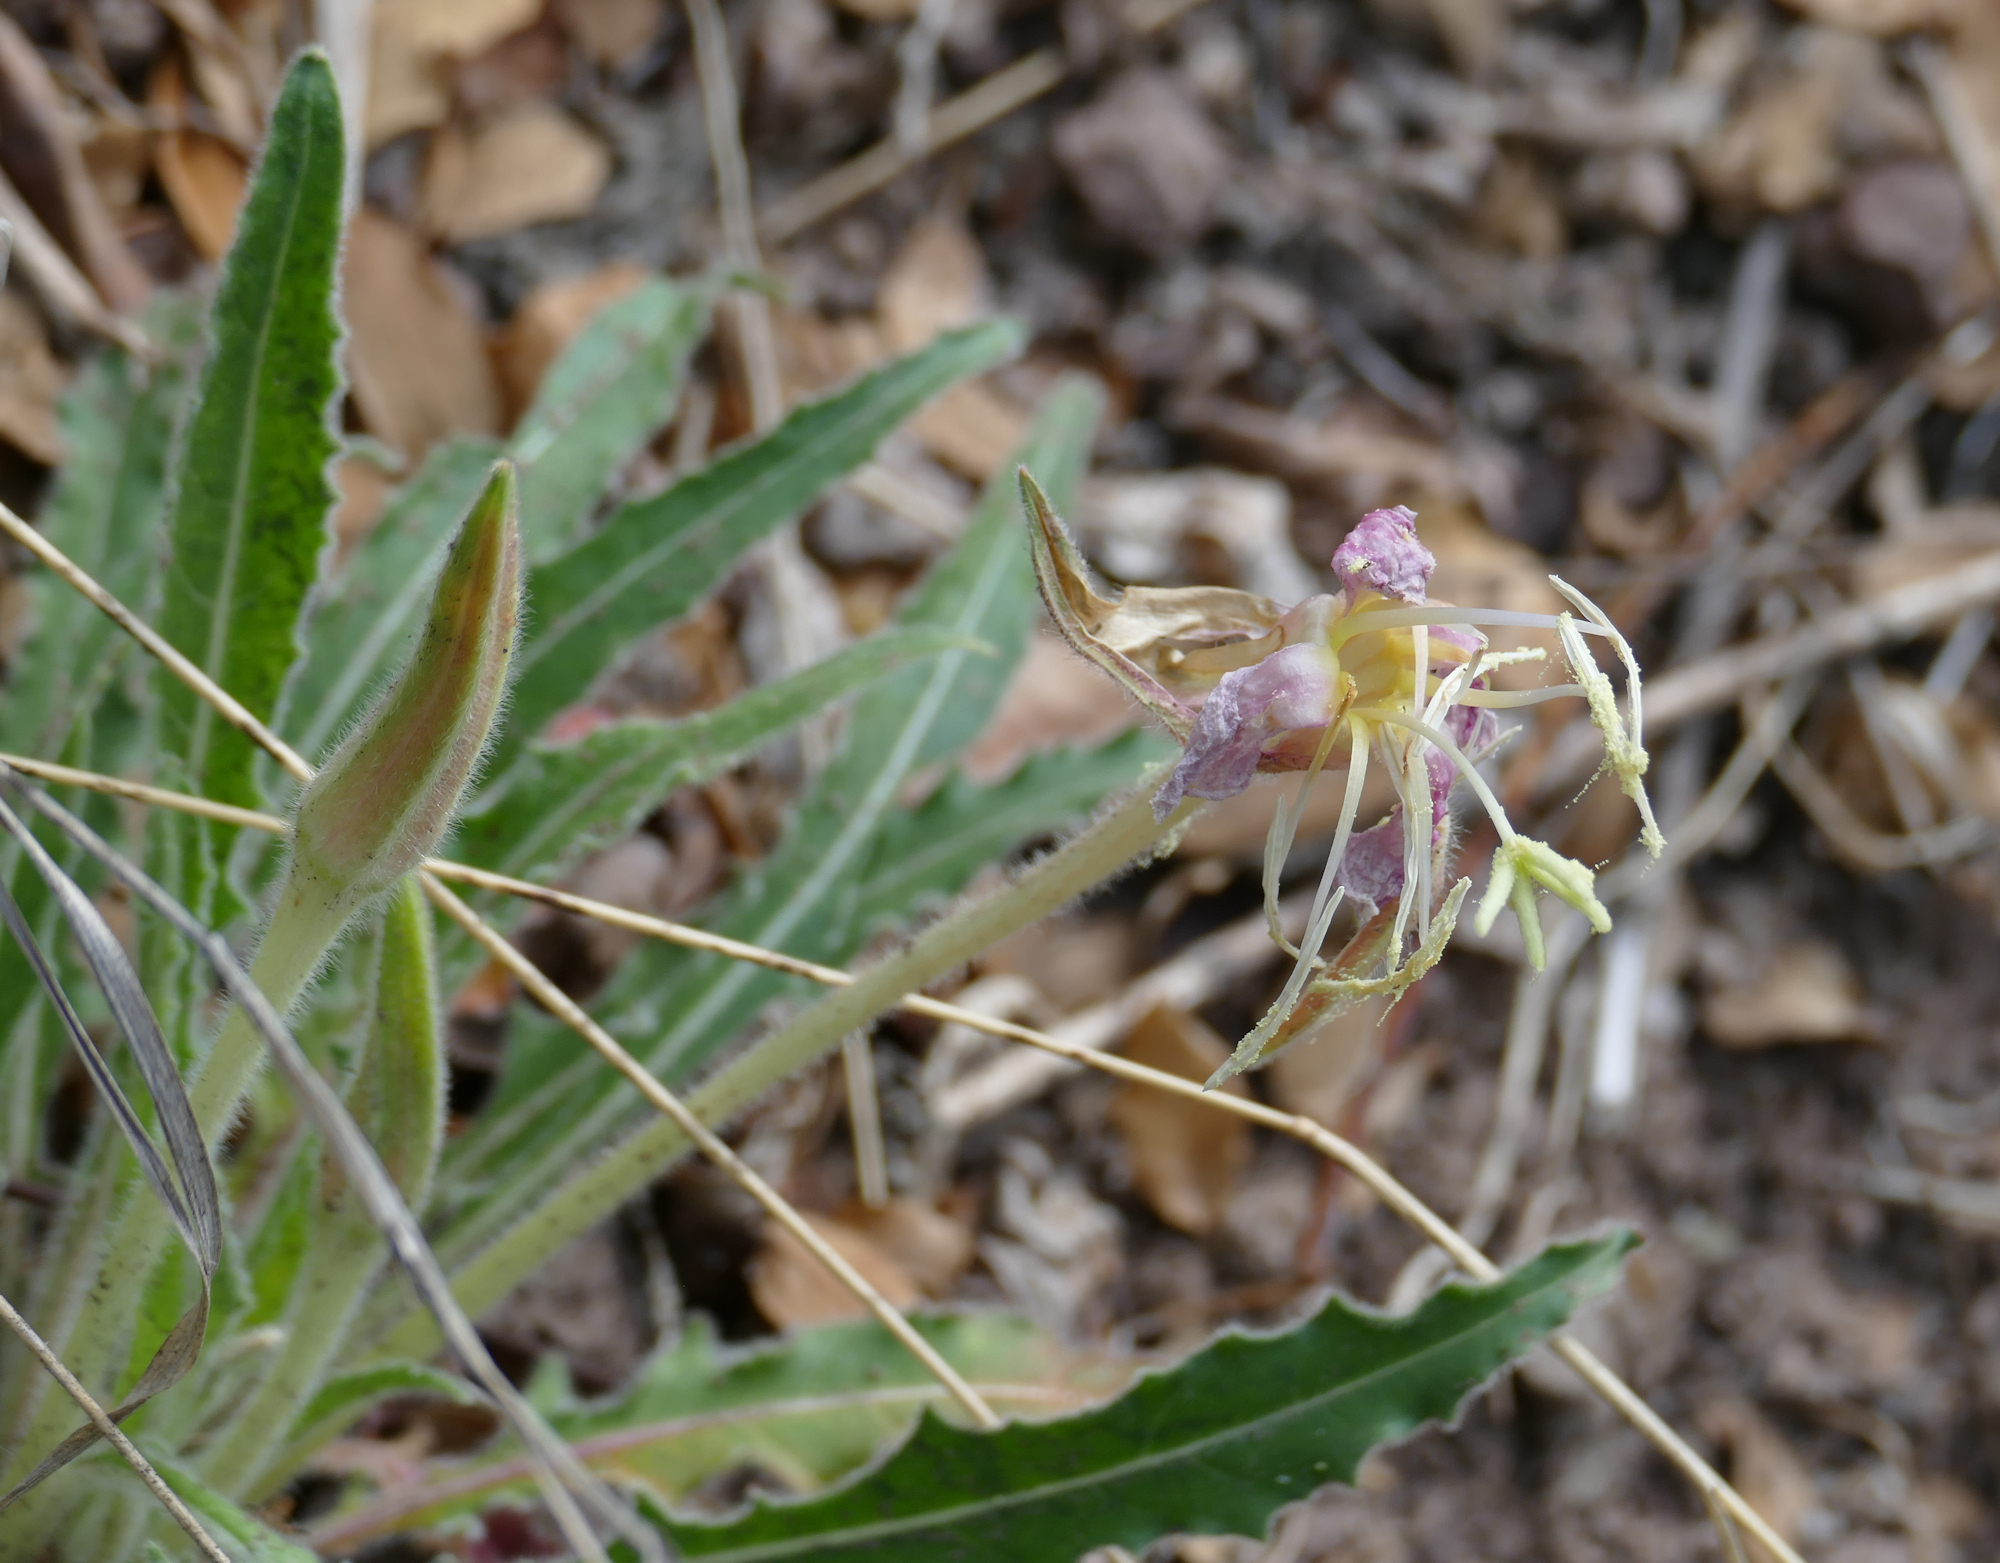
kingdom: Plantae
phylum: Tracheophyta
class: Magnoliopsida
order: Myrtales
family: Onagraceae
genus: Oenothera
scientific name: Oenothera cespitosa
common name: Tufted evening-primrose
